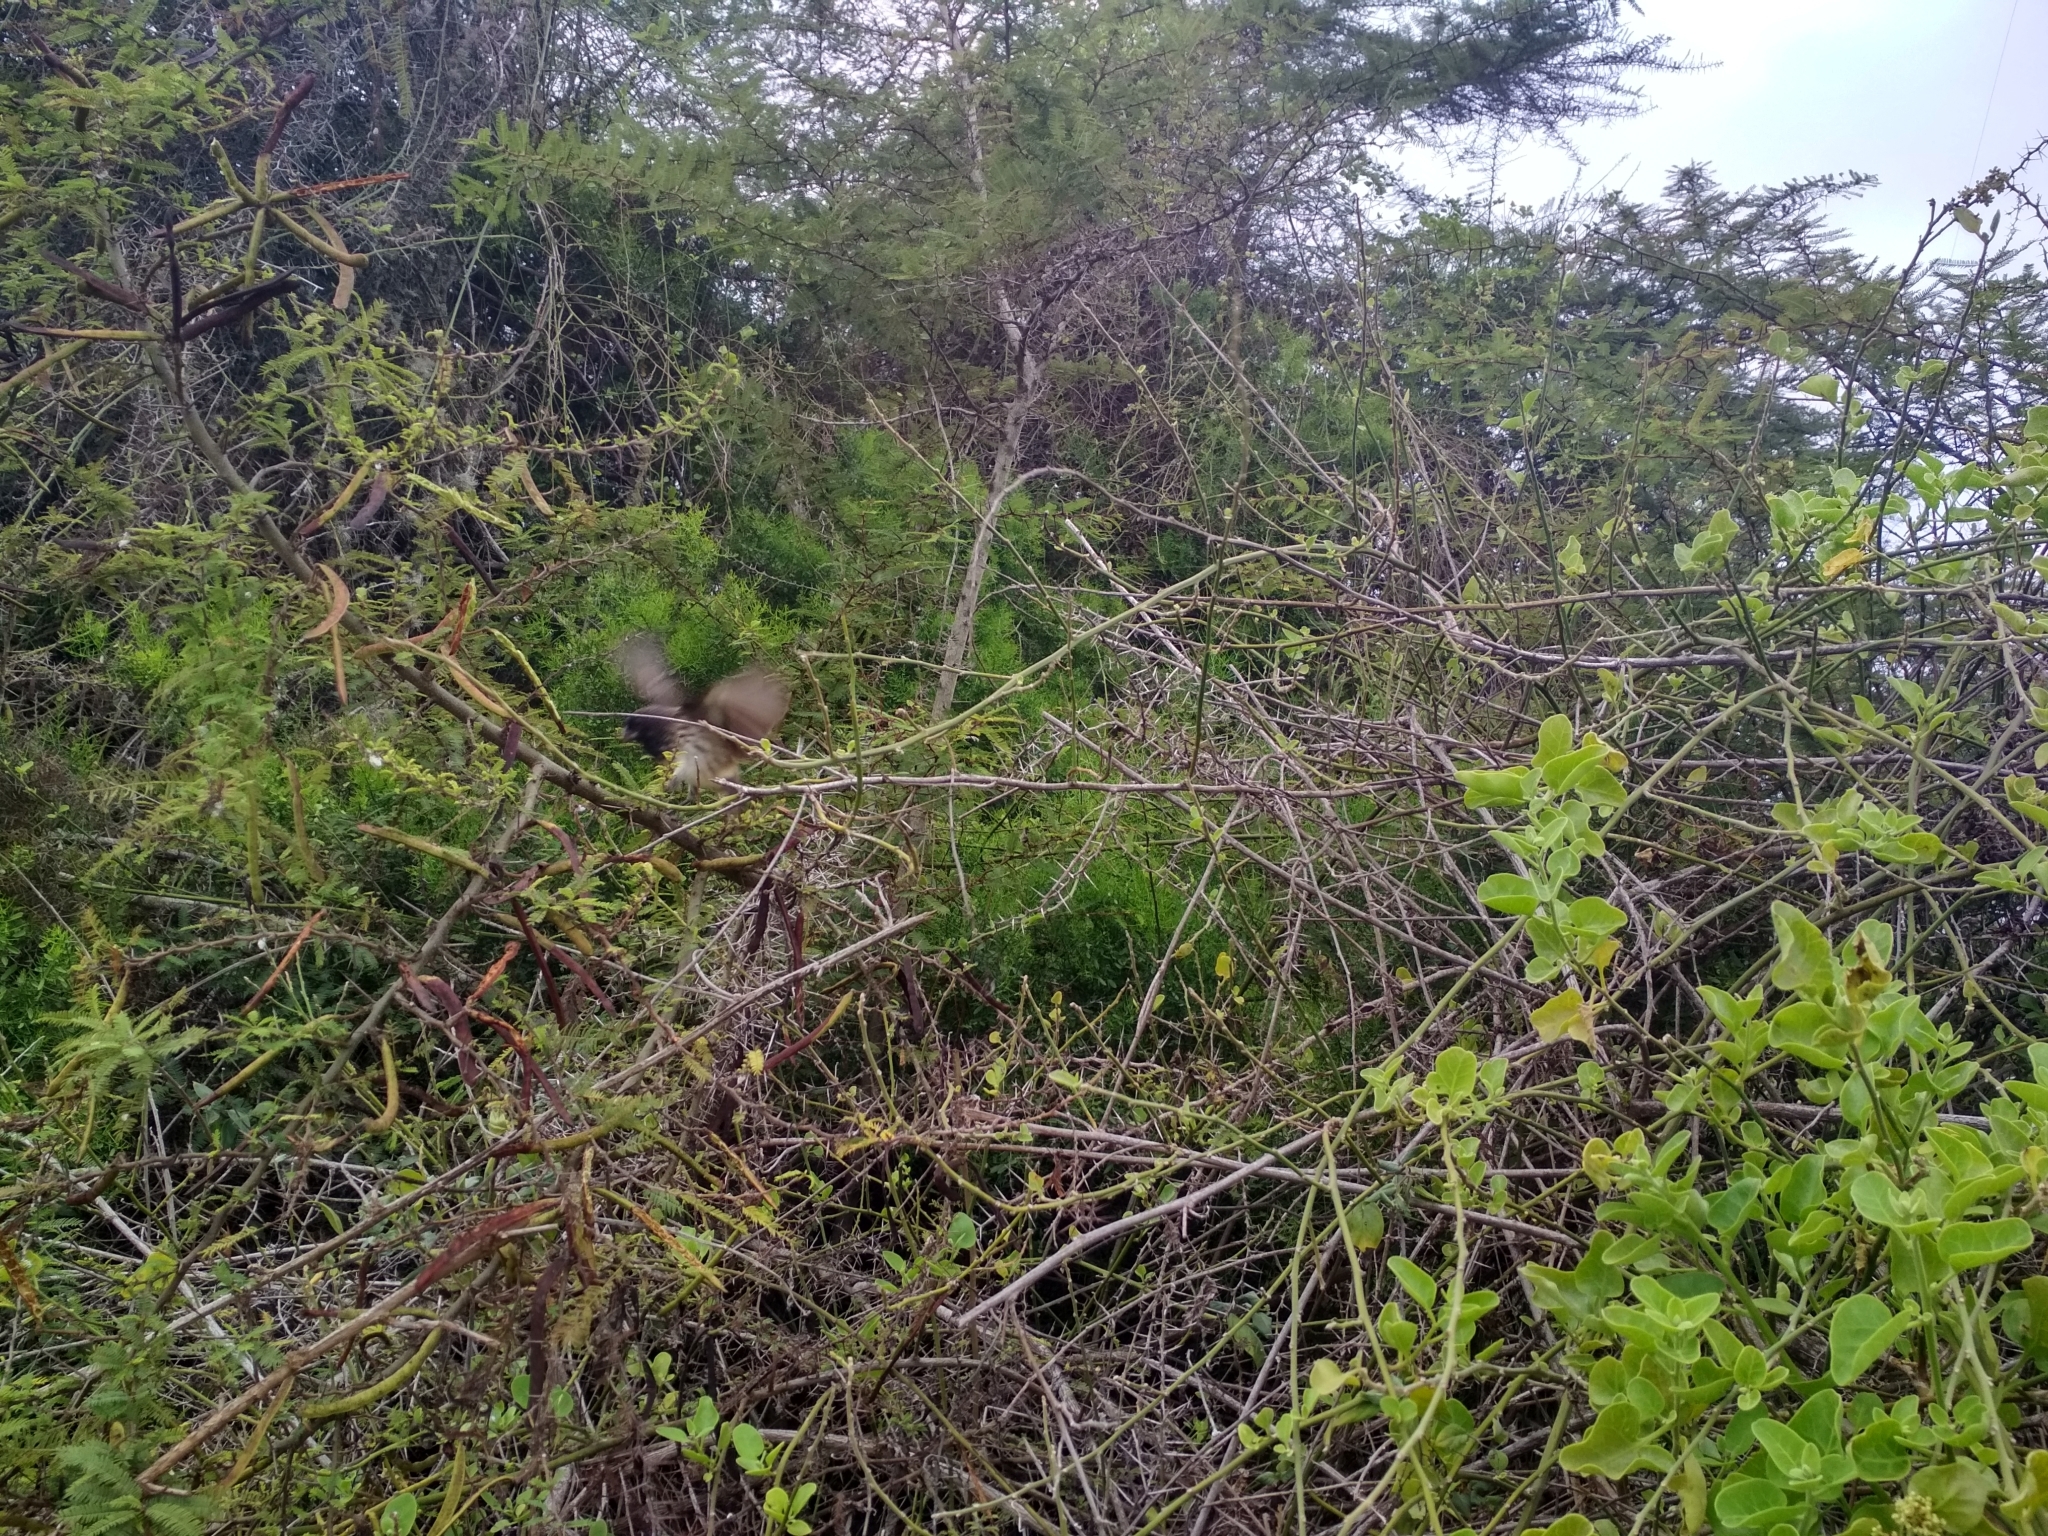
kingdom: Animalia
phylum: Chordata
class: Aves
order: Passeriformes
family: Thraupidae
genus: Camarhynchus
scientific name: Camarhynchus parvulus
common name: Small tree finch
